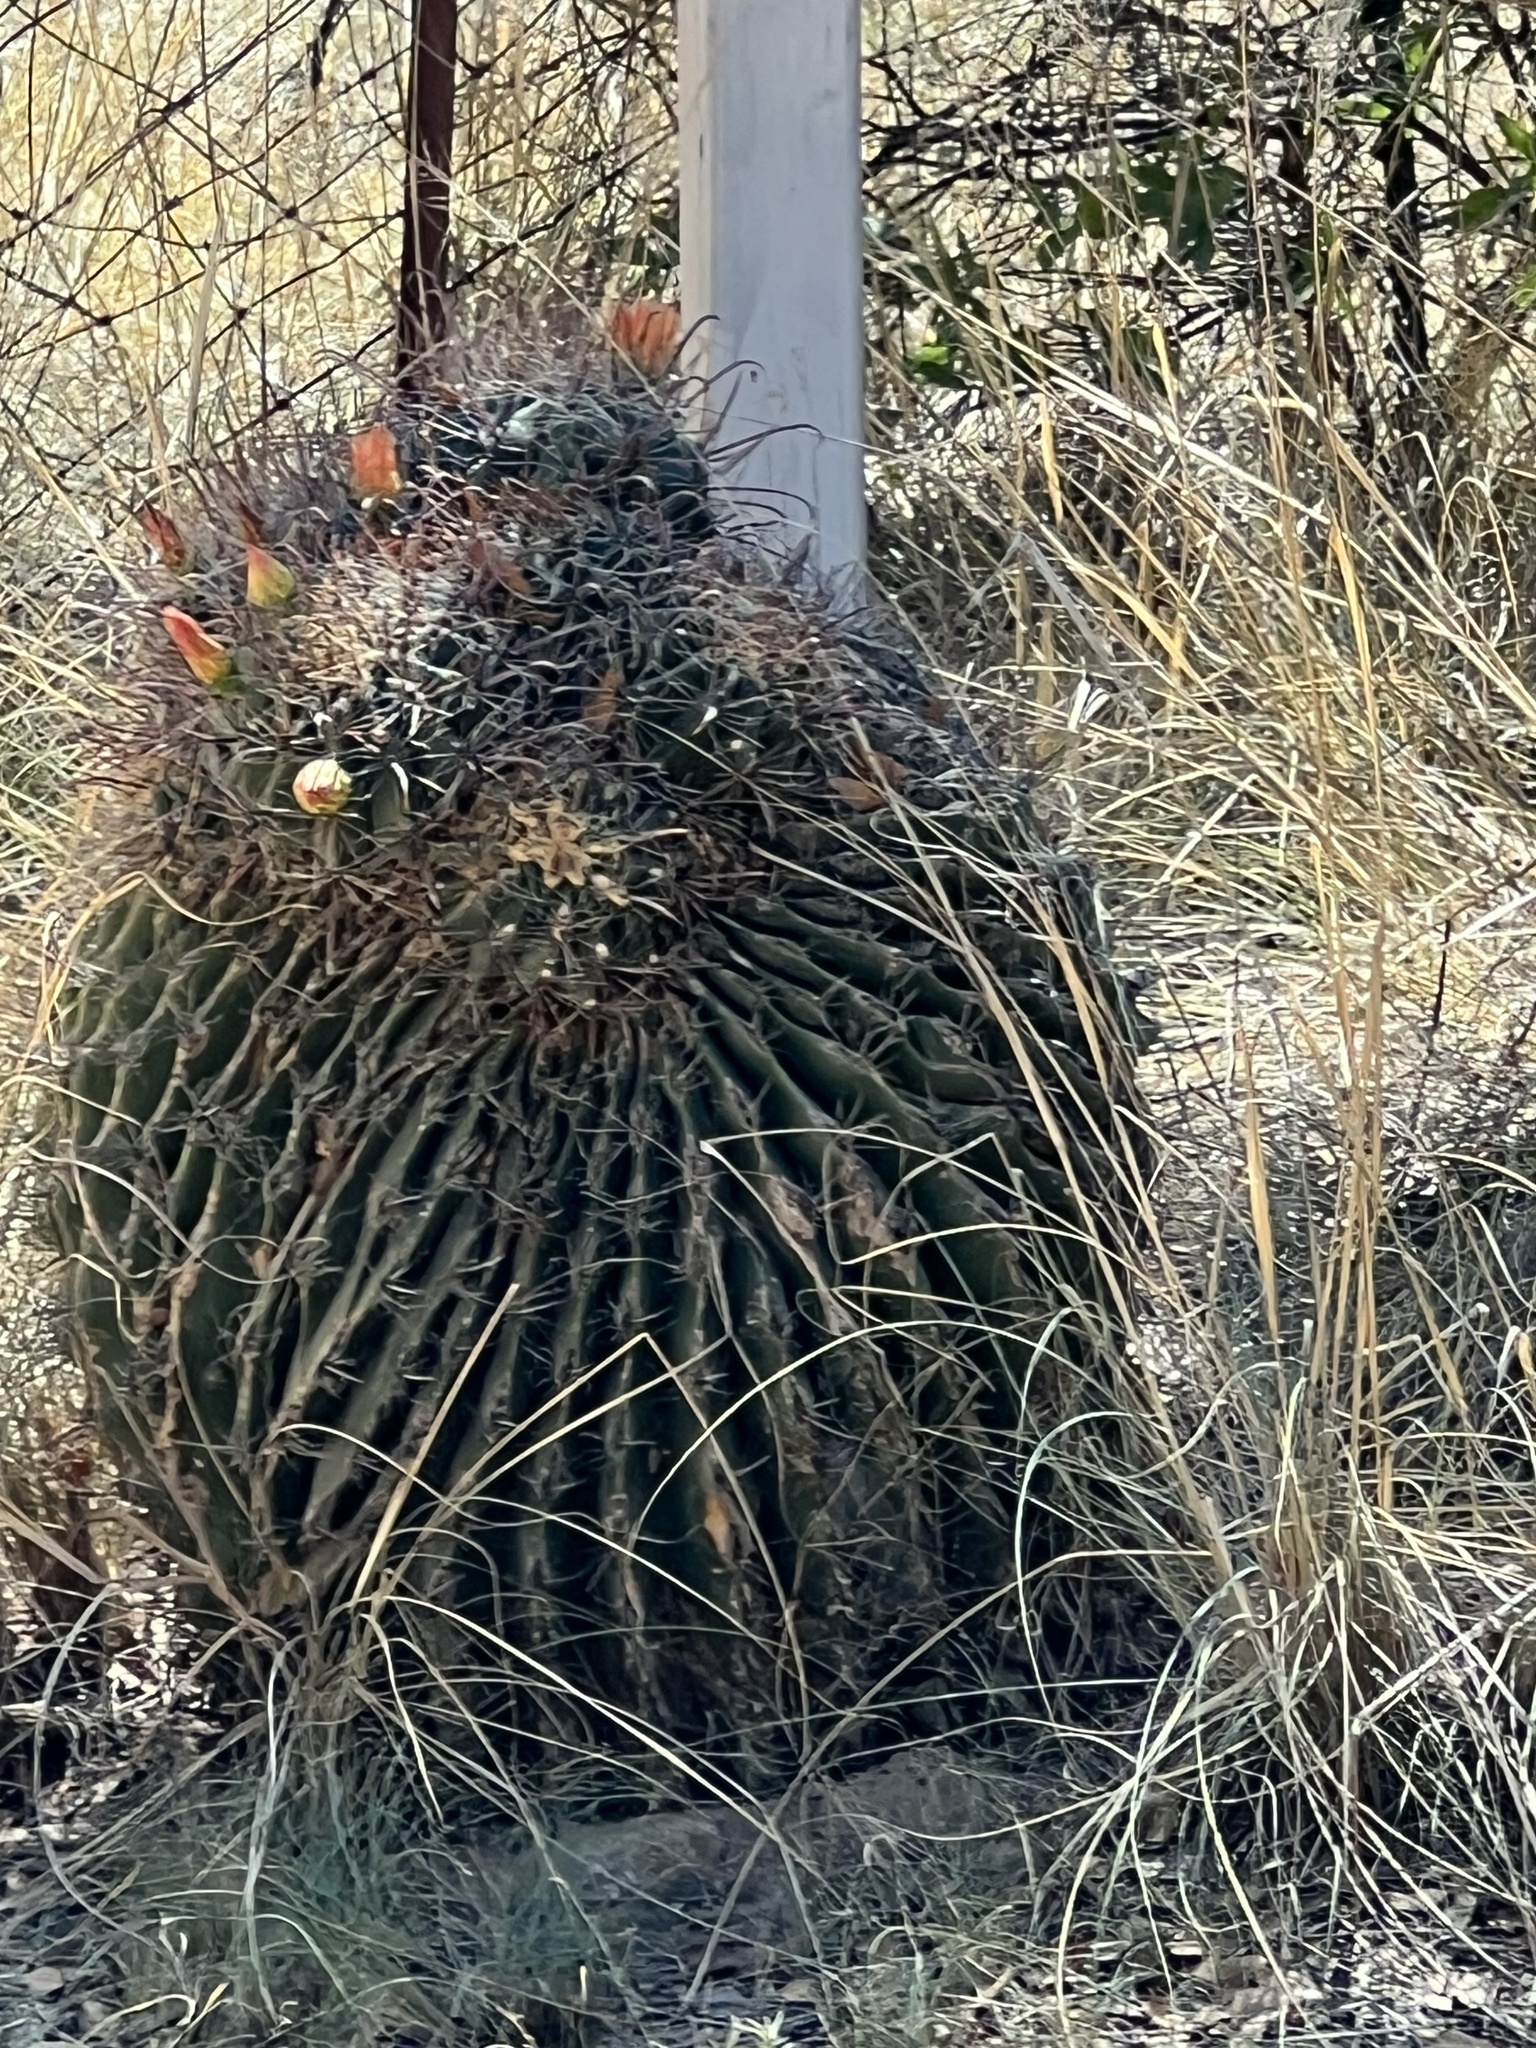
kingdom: Plantae
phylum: Tracheophyta
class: Magnoliopsida
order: Caryophyllales
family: Cactaceae
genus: Ferocactus
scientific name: Ferocactus wislizeni
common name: Candy barrel cactus
